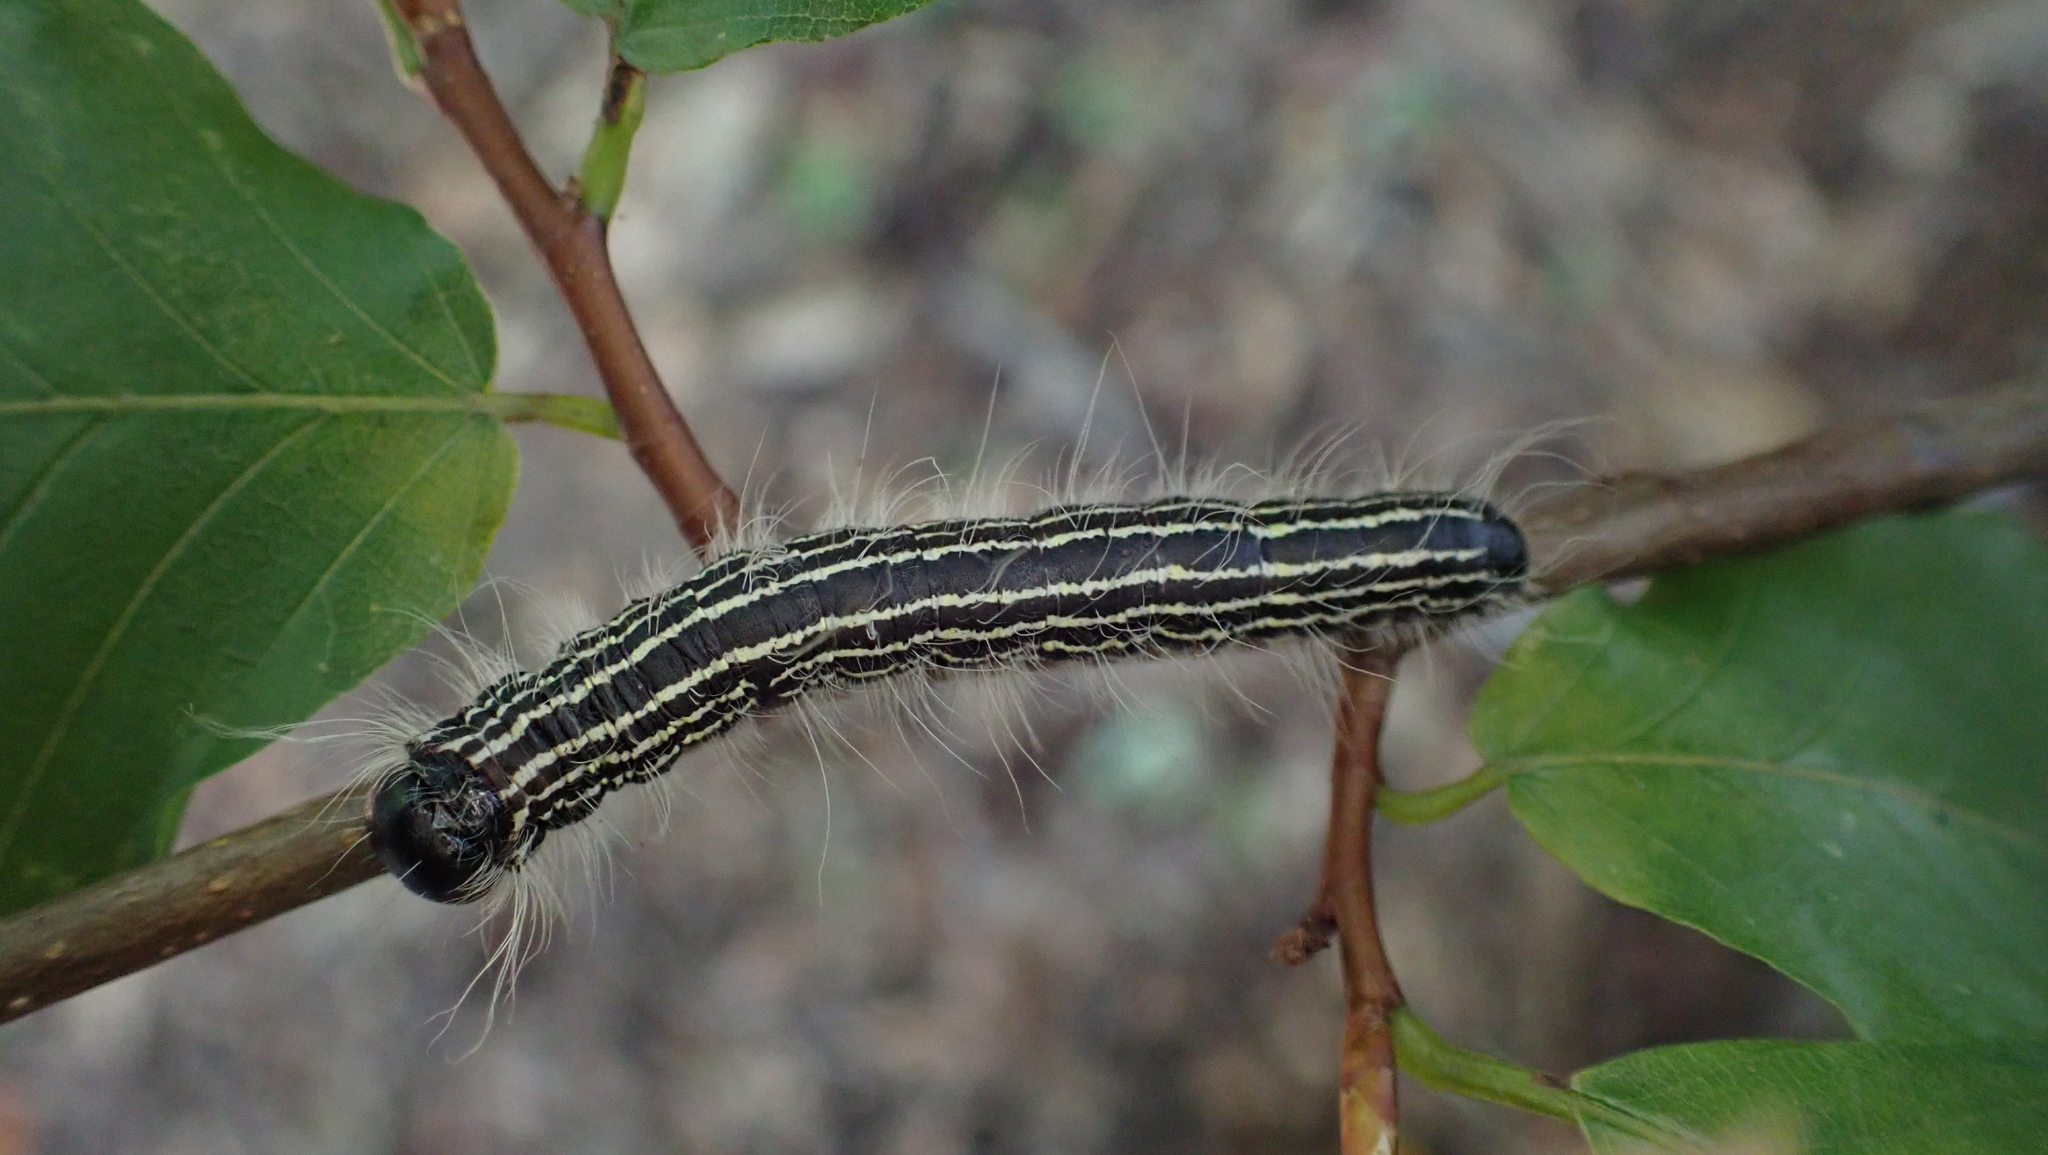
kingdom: Animalia
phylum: Arthropoda
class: Insecta
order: Lepidoptera
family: Notodontidae
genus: Datana
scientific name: Datana angusii
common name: Angus's datana
